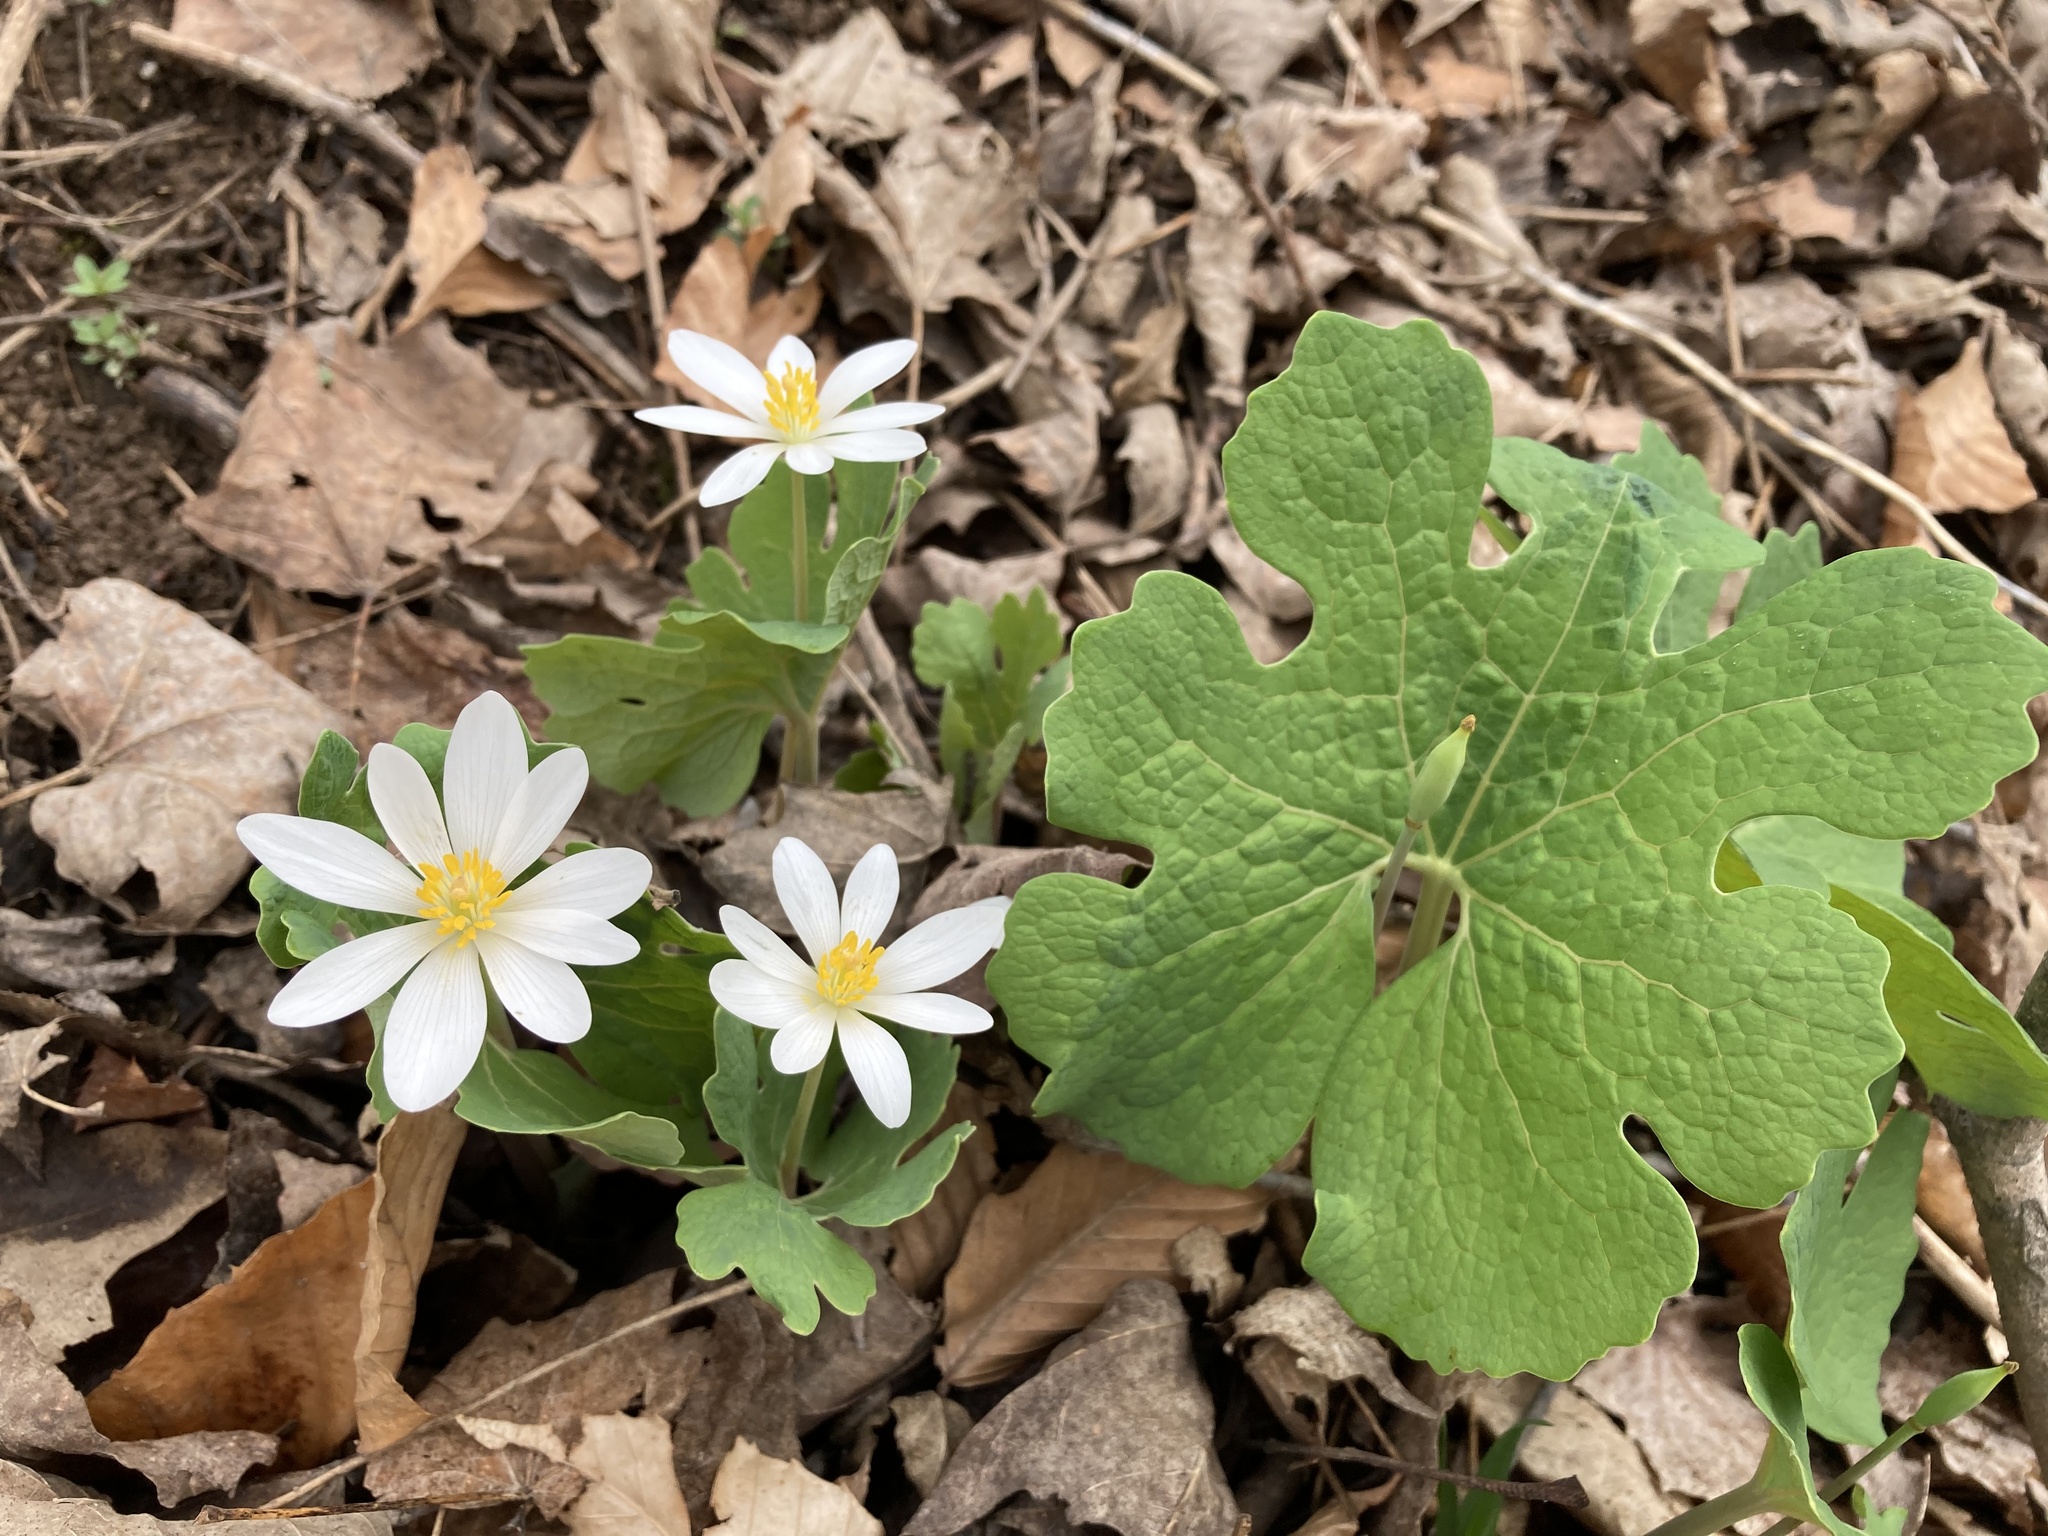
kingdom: Plantae
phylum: Tracheophyta
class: Magnoliopsida
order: Ranunculales
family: Papaveraceae
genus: Sanguinaria
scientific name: Sanguinaria canadensis
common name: Bloodroot
